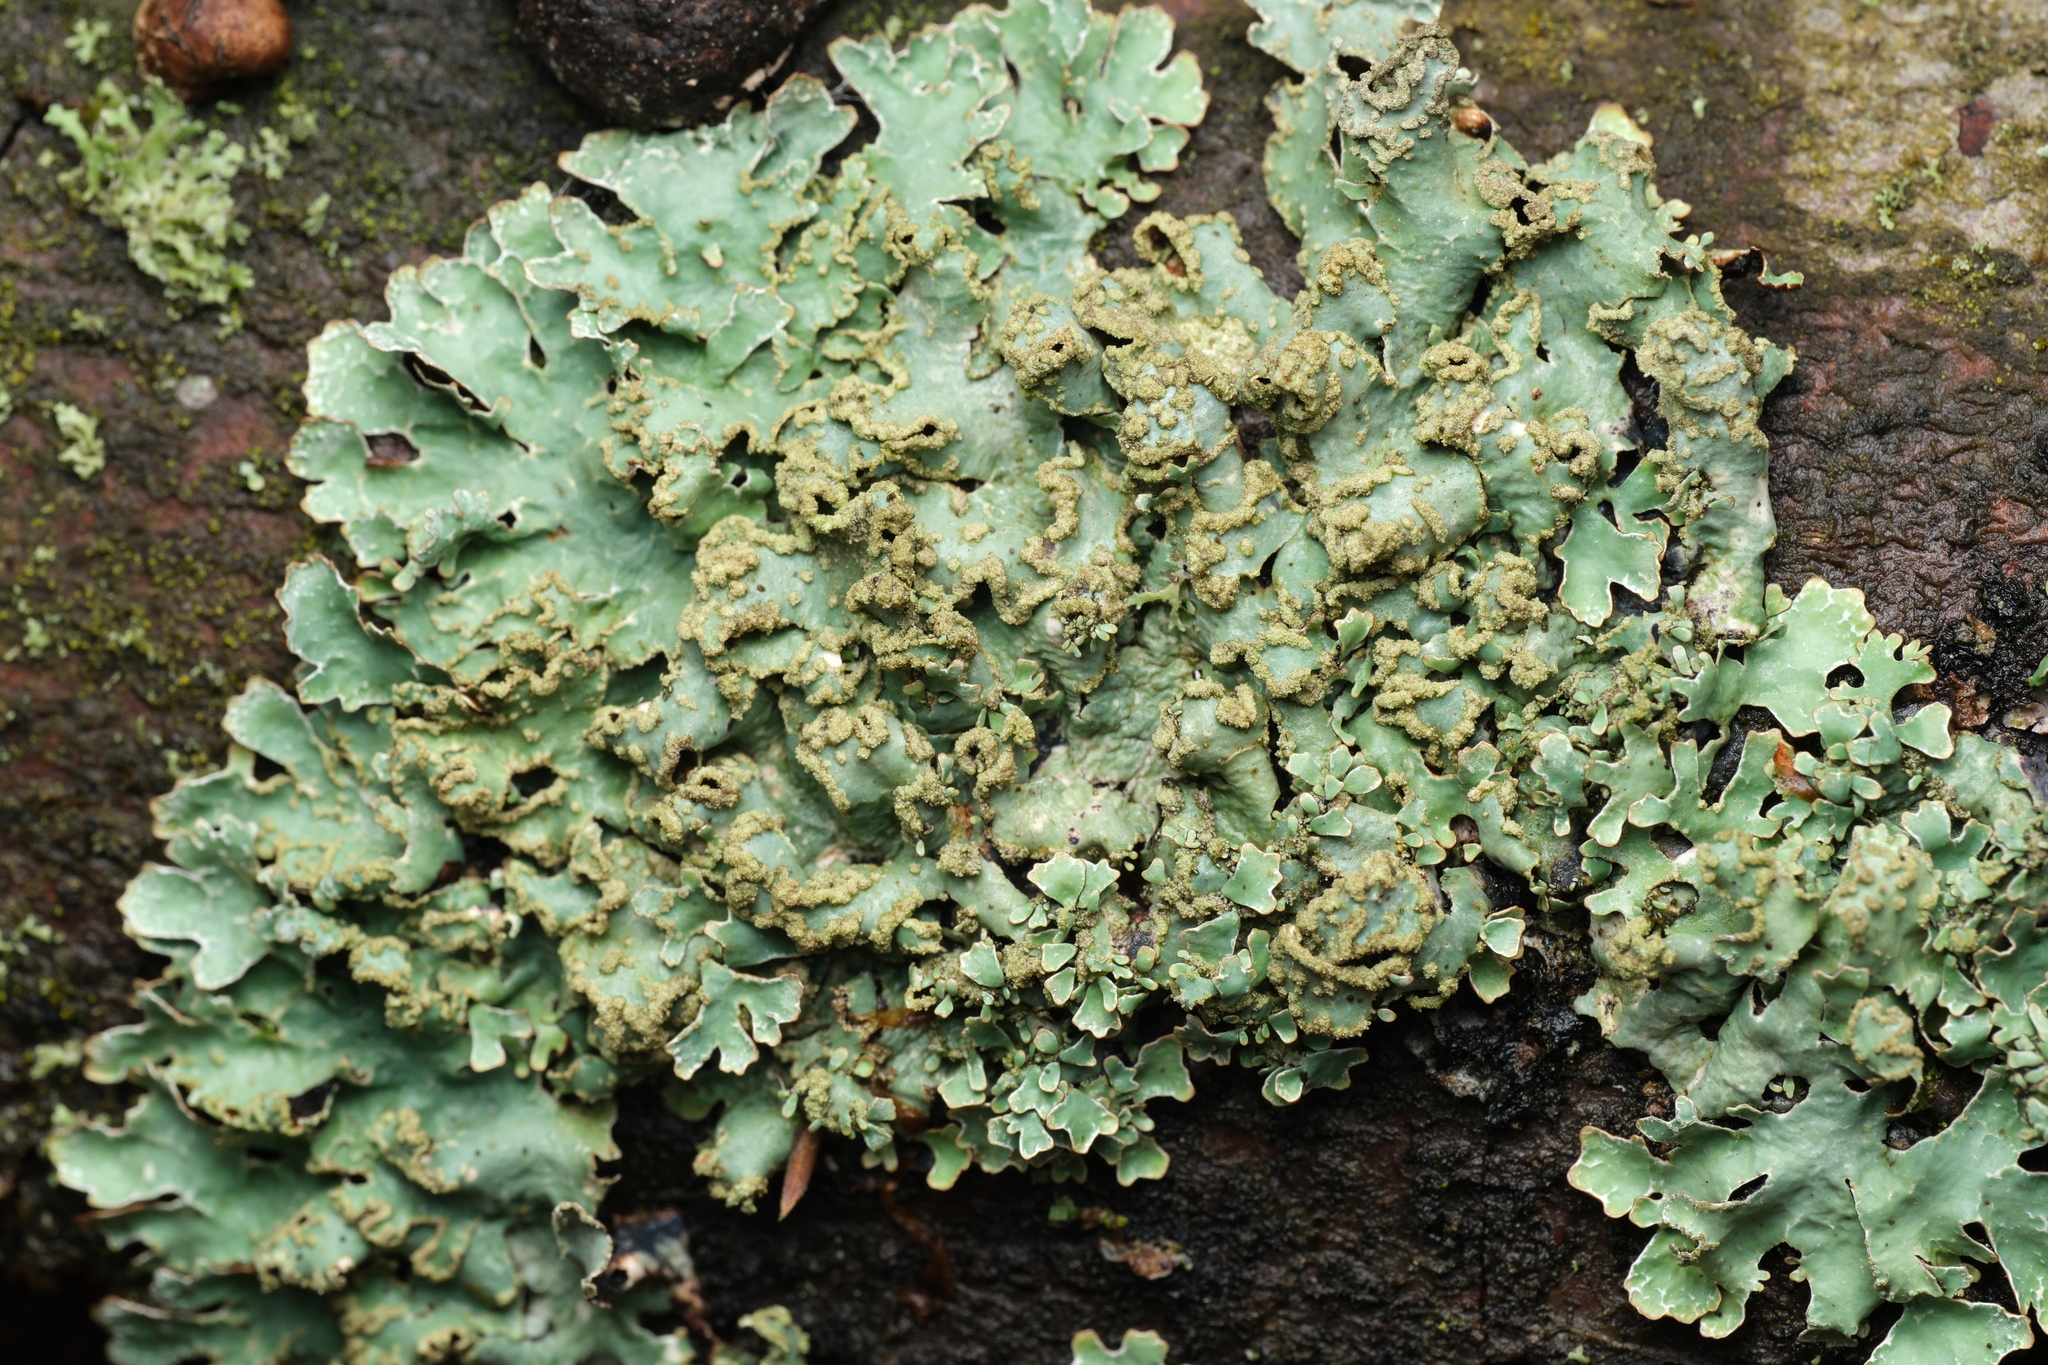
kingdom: Fungi
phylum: Ascomycota
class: Lecanoromycetes
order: Lecanorales
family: Parmeliaceae
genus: Parmelia
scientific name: Parmelia sulcata
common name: Netted shield lichen
